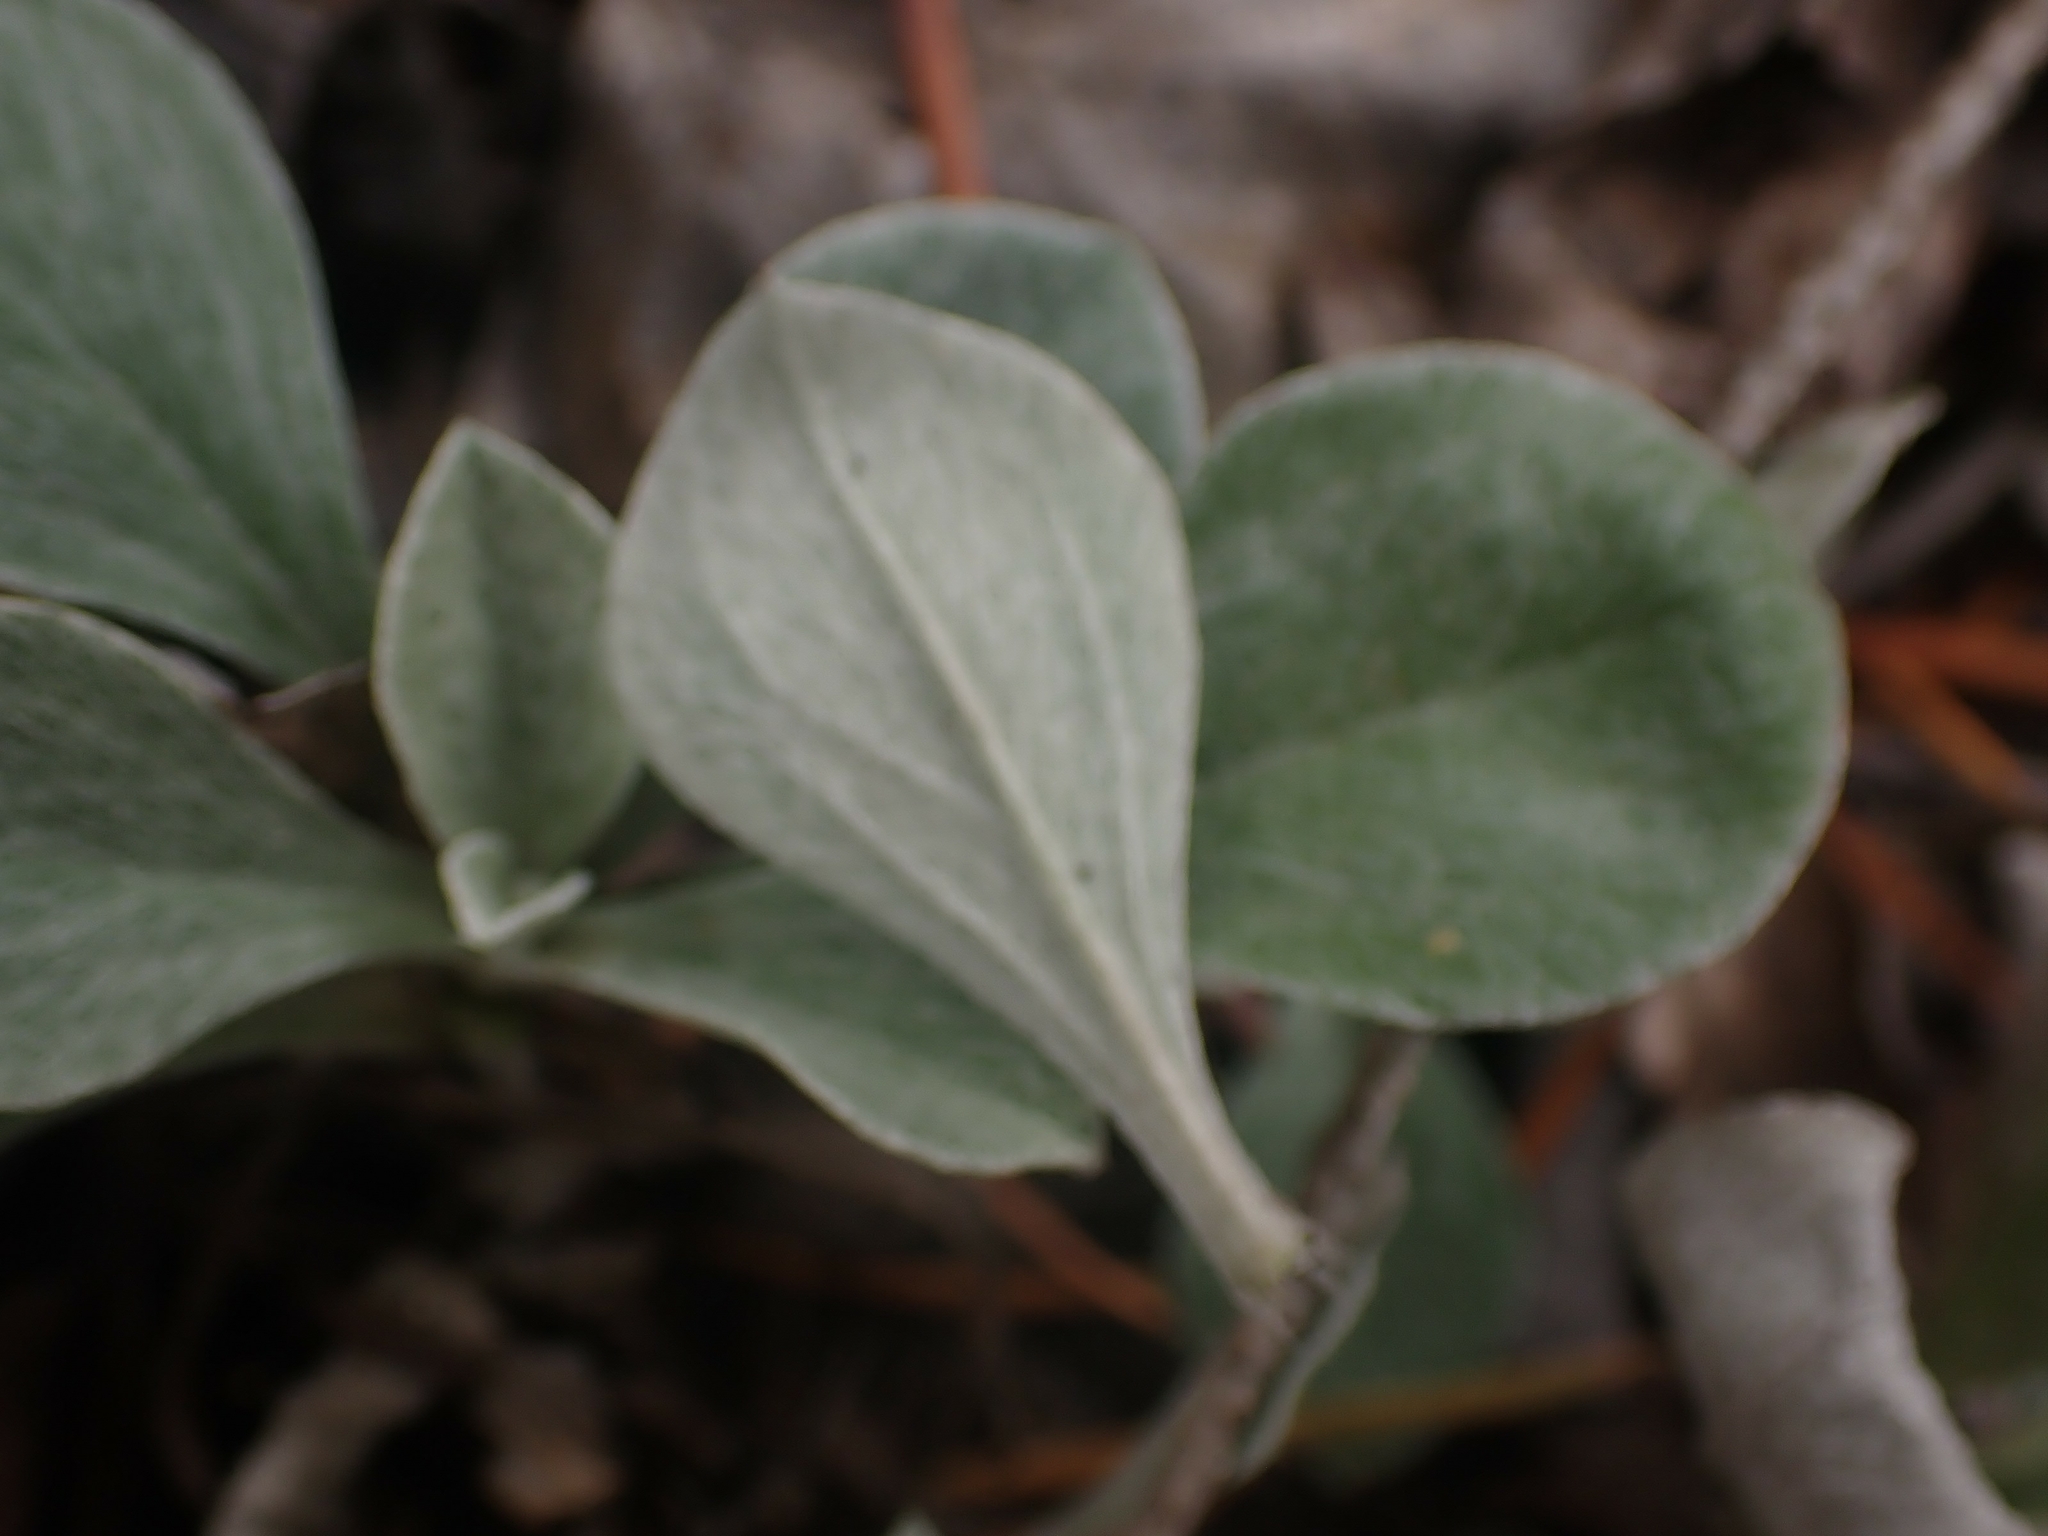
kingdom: Plantae
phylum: Tracheophyta
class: Magnoliopsida
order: Asterales
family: Asteraceae
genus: Antennaria
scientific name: Antennaria howellii
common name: Howell's pussytoes
